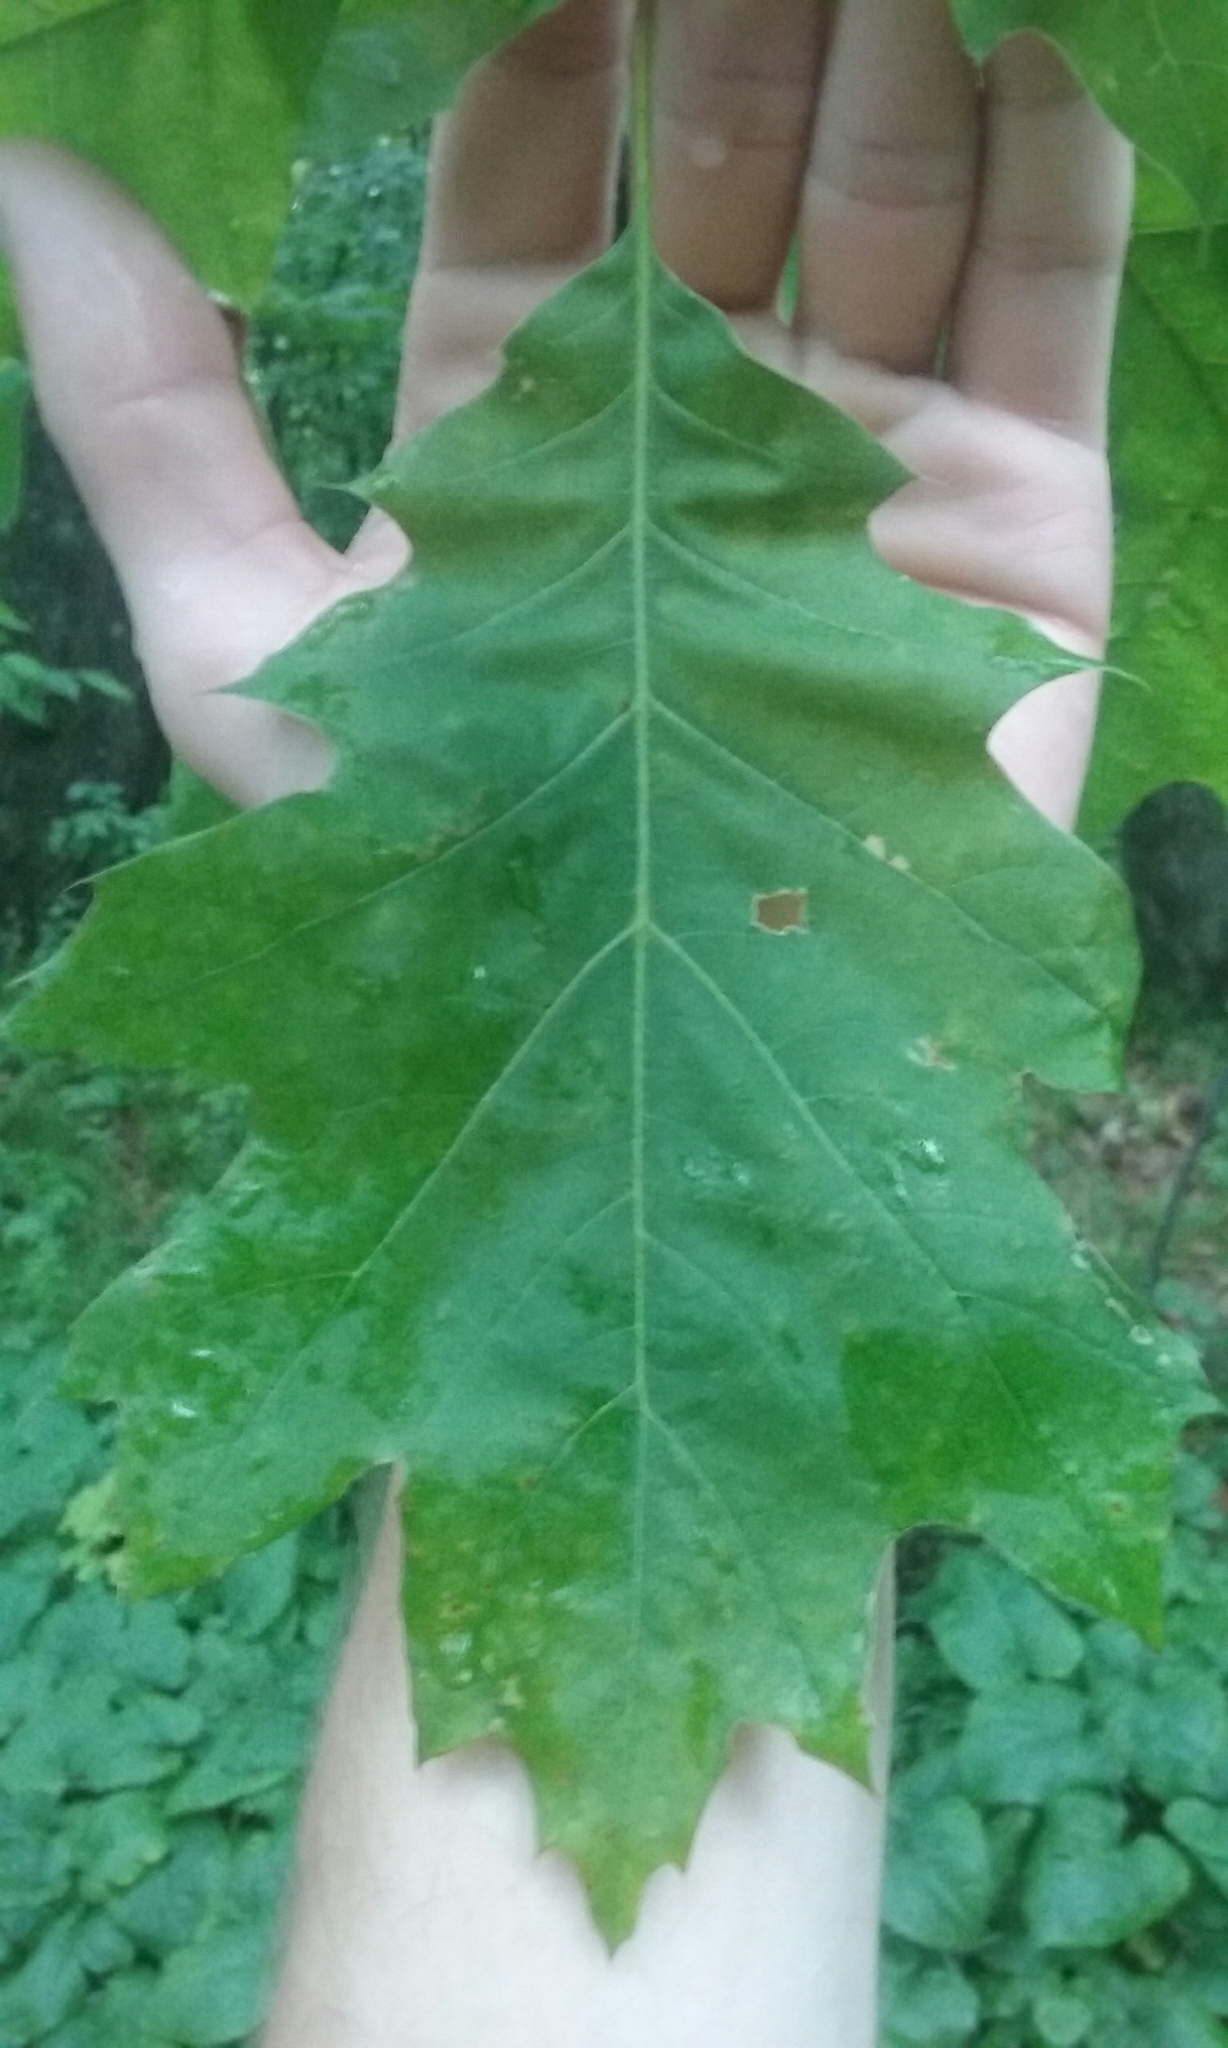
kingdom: Plantae
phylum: Tracheophyta
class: Magnoliopsida
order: Fagales
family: Fagaceae
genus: Quercus
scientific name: Quercus rubra
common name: Red oak
